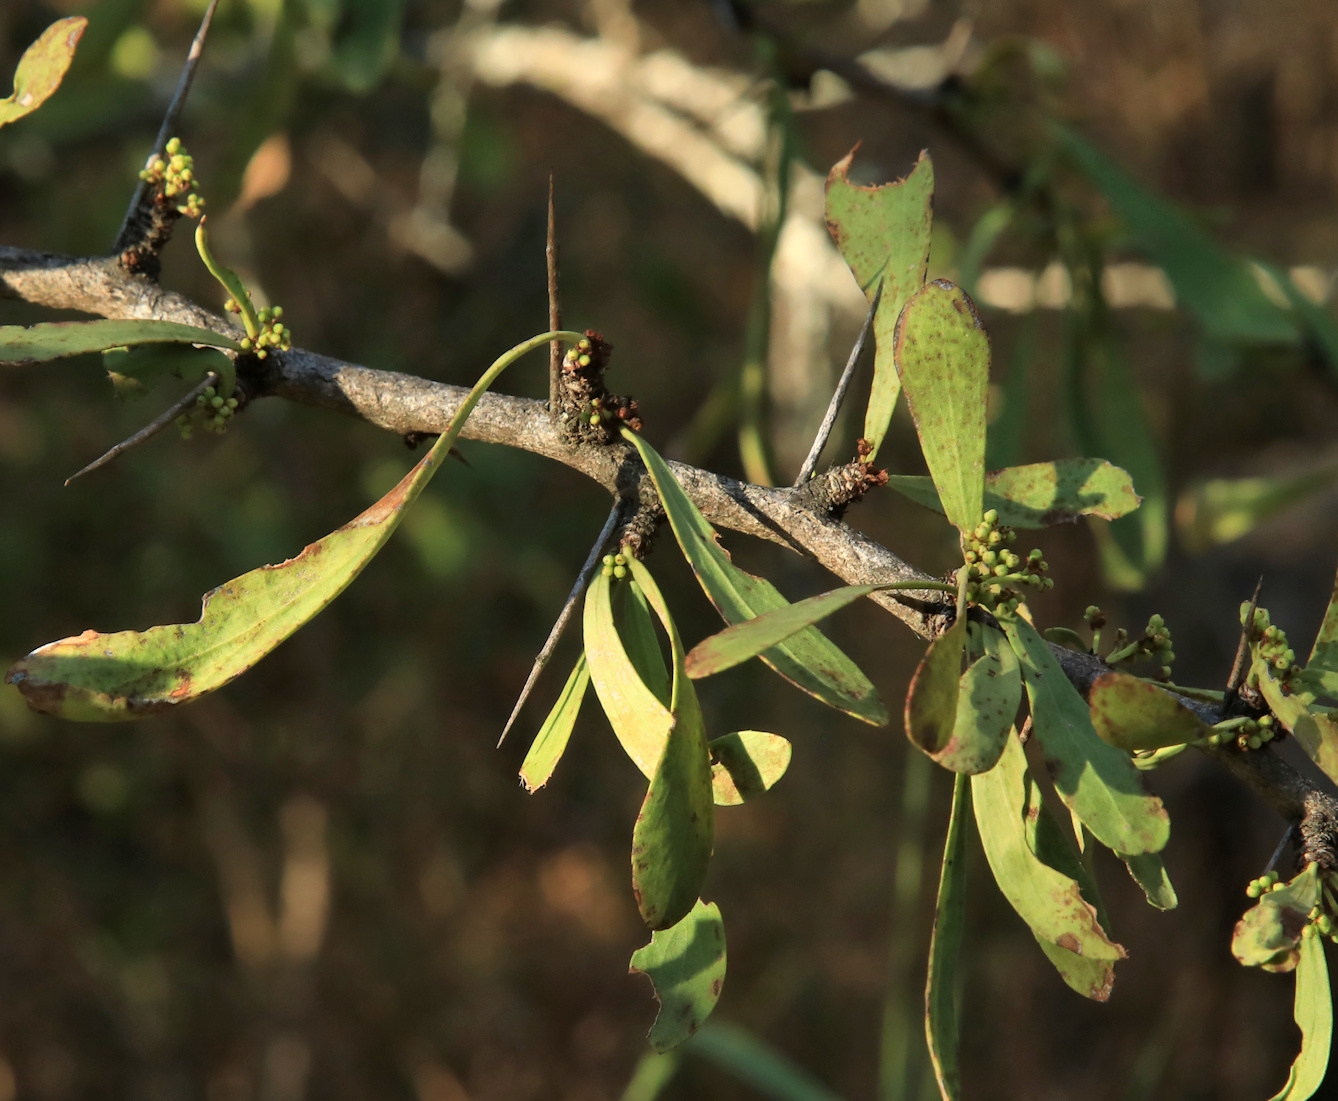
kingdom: Plantae
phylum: Tracheophyta
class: Magnoliopsida
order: Celastrales
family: Celastraceae
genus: Gymnosporia
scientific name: Gymnosporia glaucophylla
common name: Blue spike-thorn
